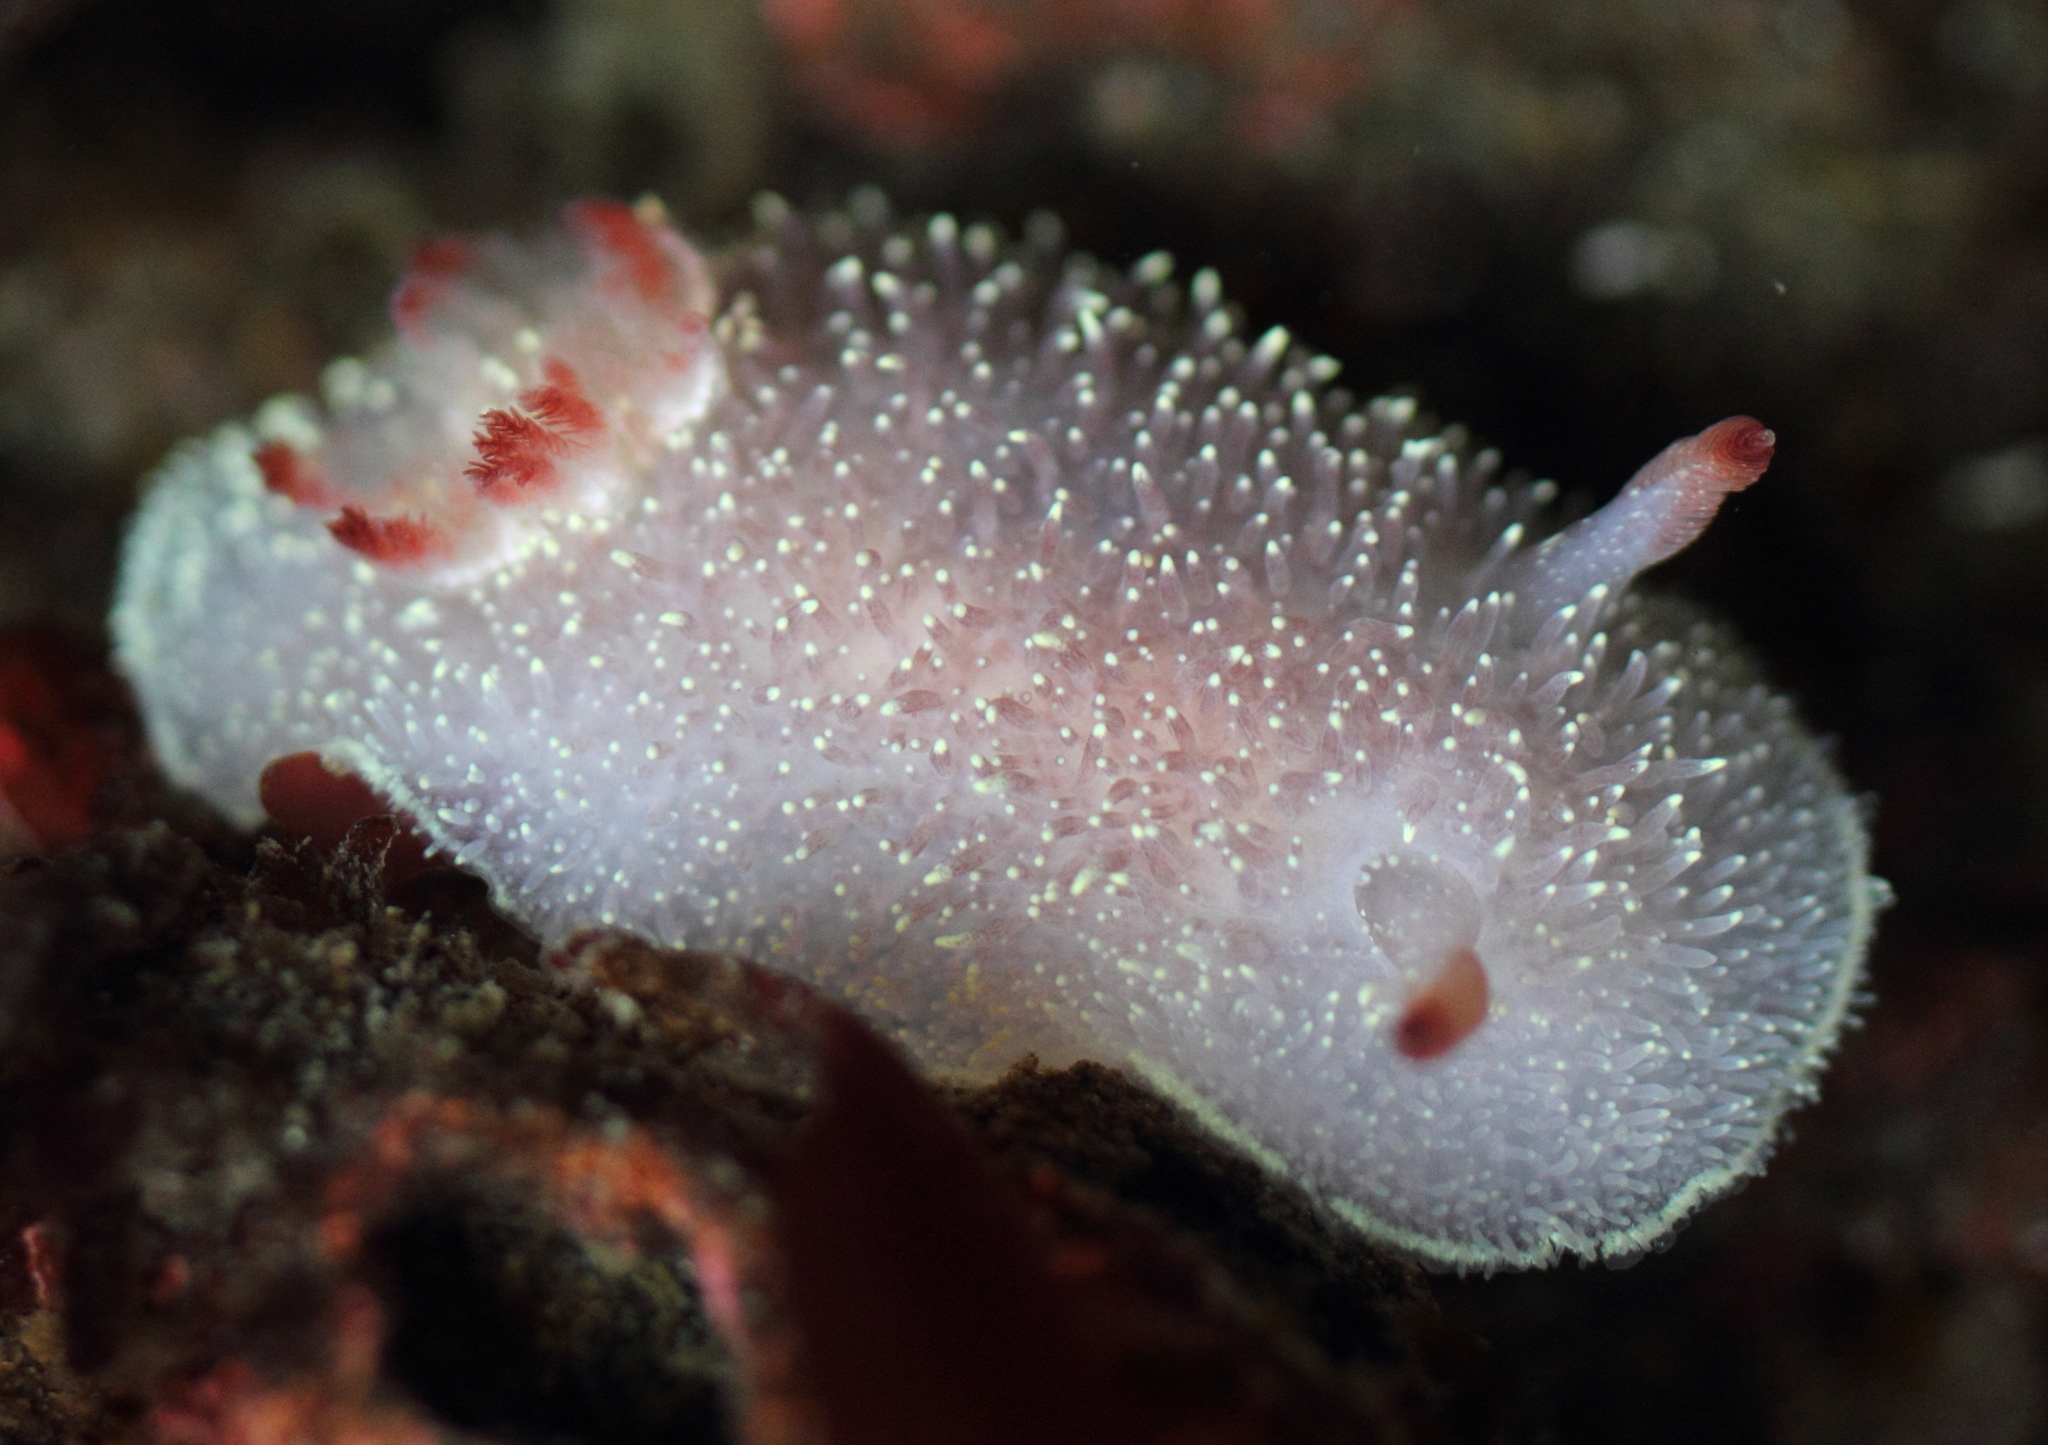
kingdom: Animalia
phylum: Mollusca
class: Gastropoda
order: Nudibranchia
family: Onchidorididae
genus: Acanthodoris
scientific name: Acanthodoris nanaimoensis
